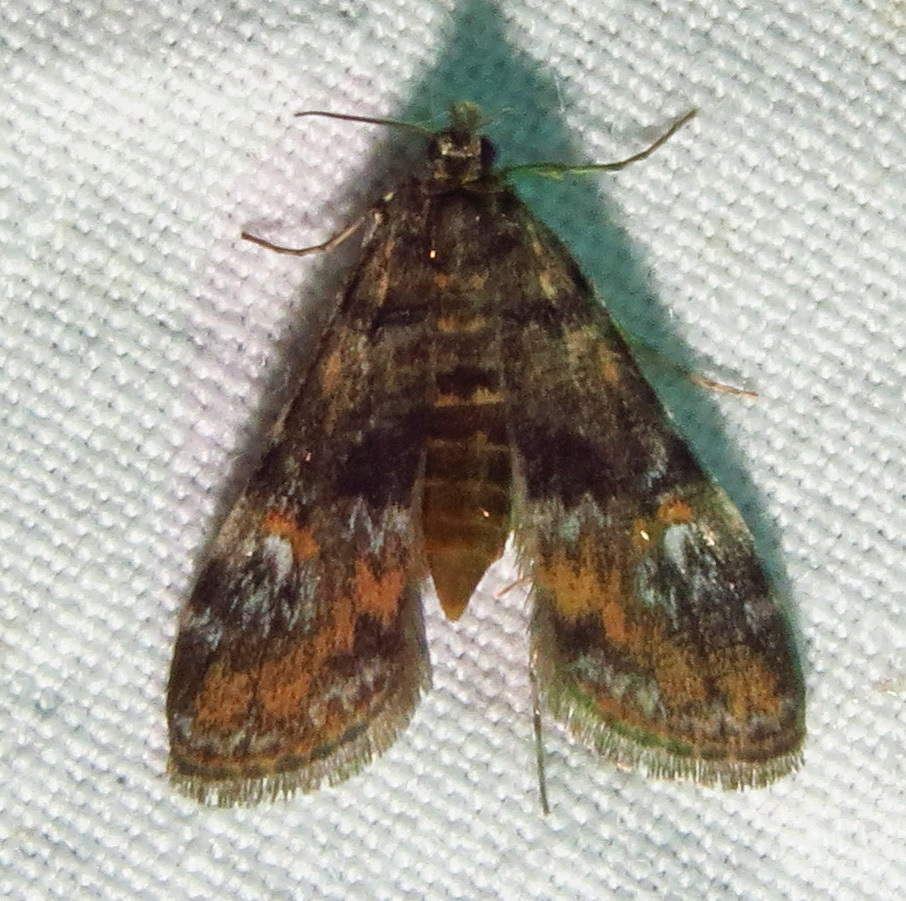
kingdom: Animalia
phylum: Arthropoda
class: Insecta
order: Lepidoptera
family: Crambidae
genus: Elophila
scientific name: Elophila obliteralis
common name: Waterlily leafcutter moth
